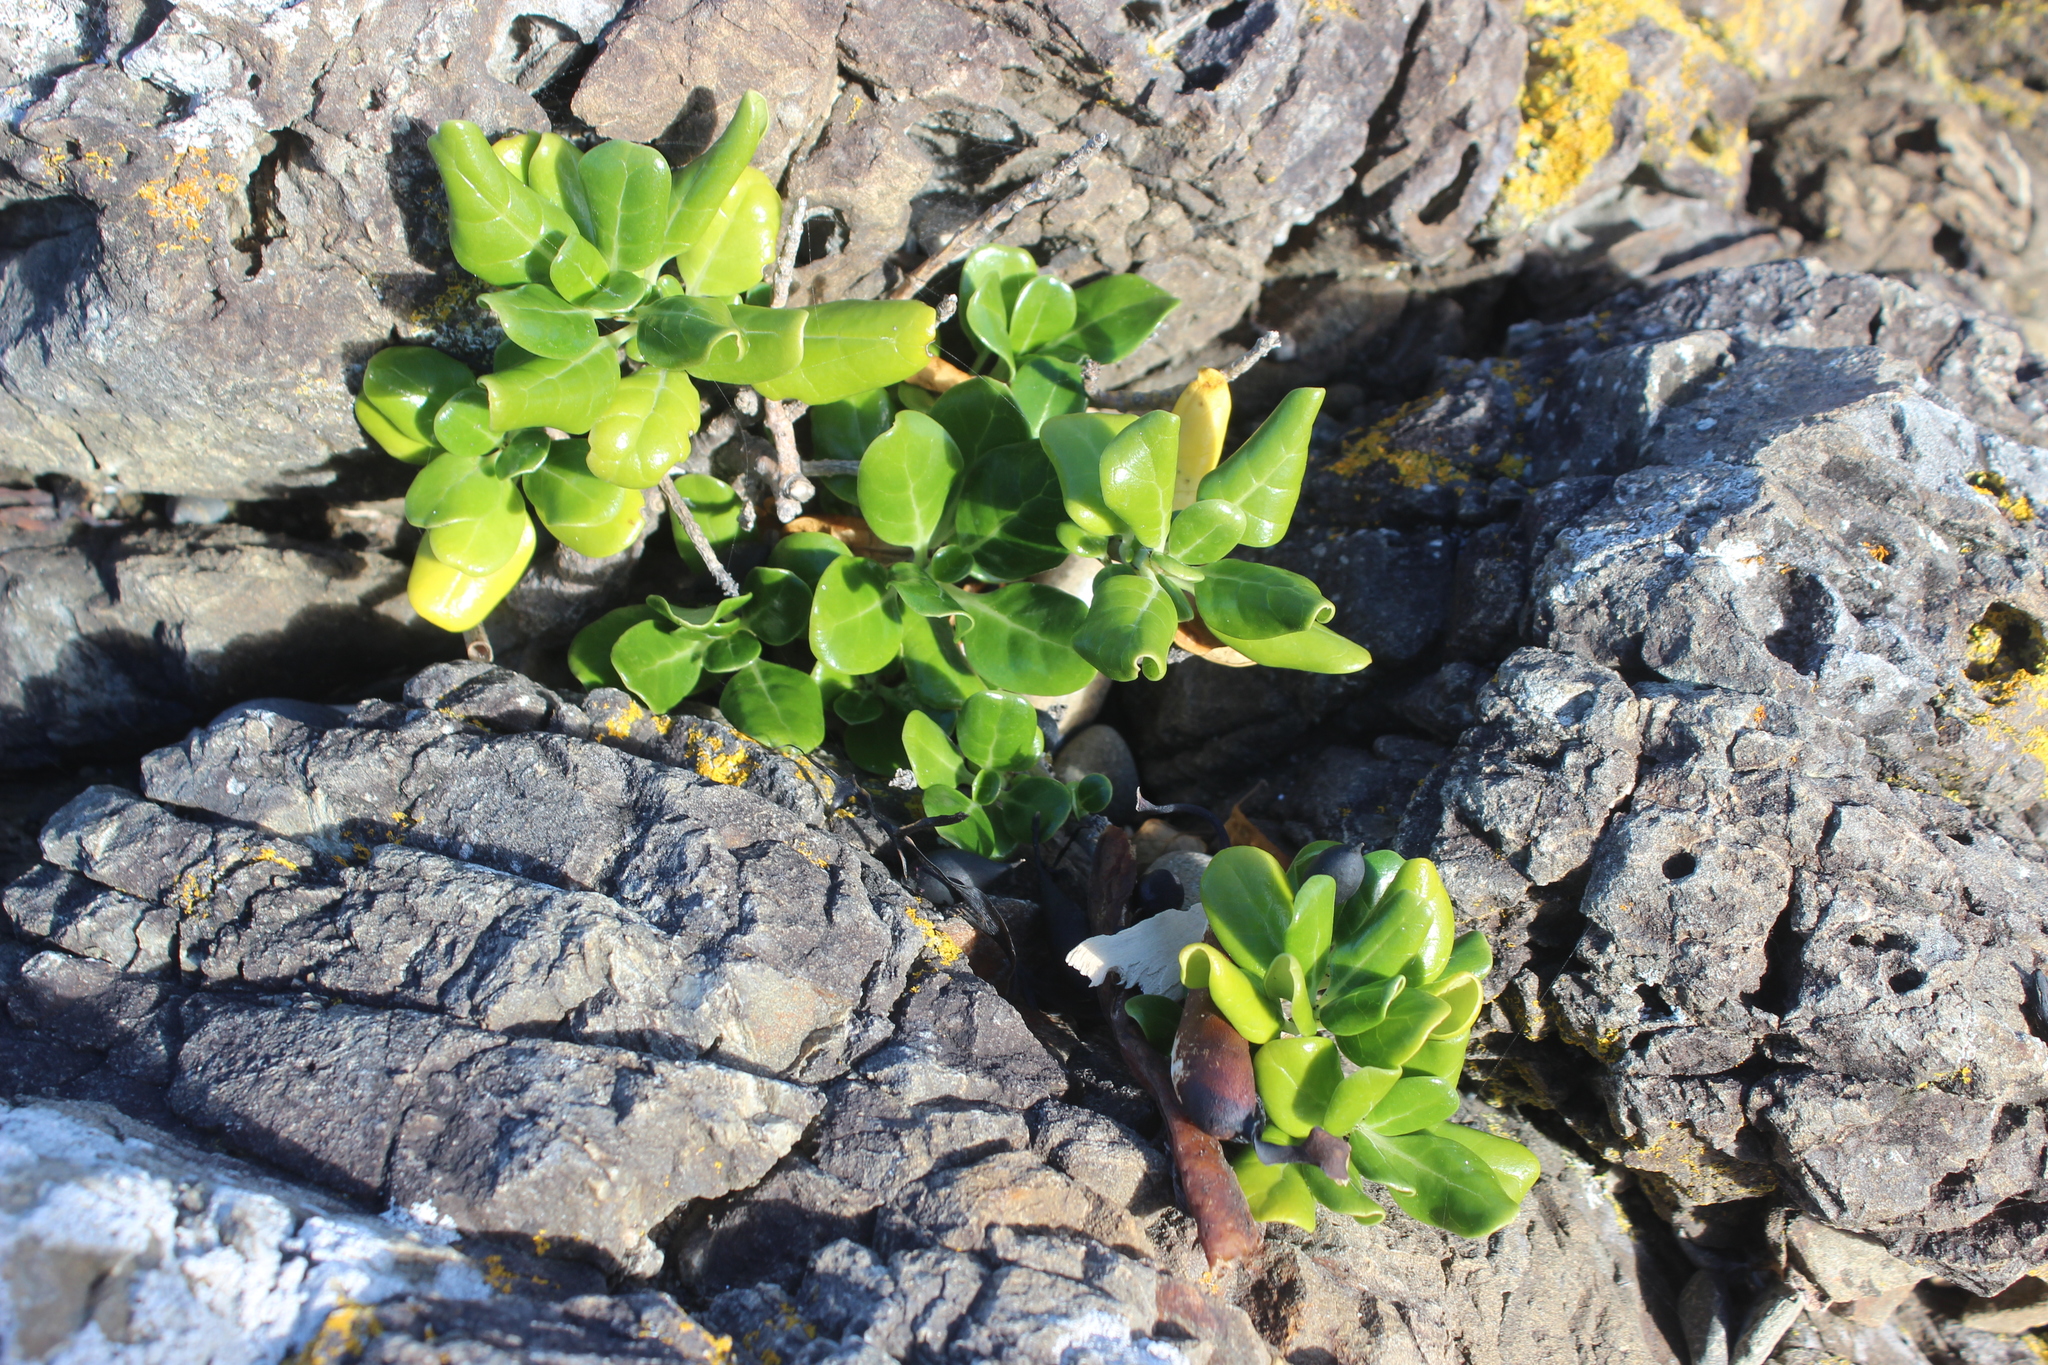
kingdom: Plantae
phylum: Tracheophyta
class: Magnoliopsida
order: Gentianales
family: Rubiaceae
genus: Coprosma
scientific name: Coprosma repens
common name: Tree bedstraw
